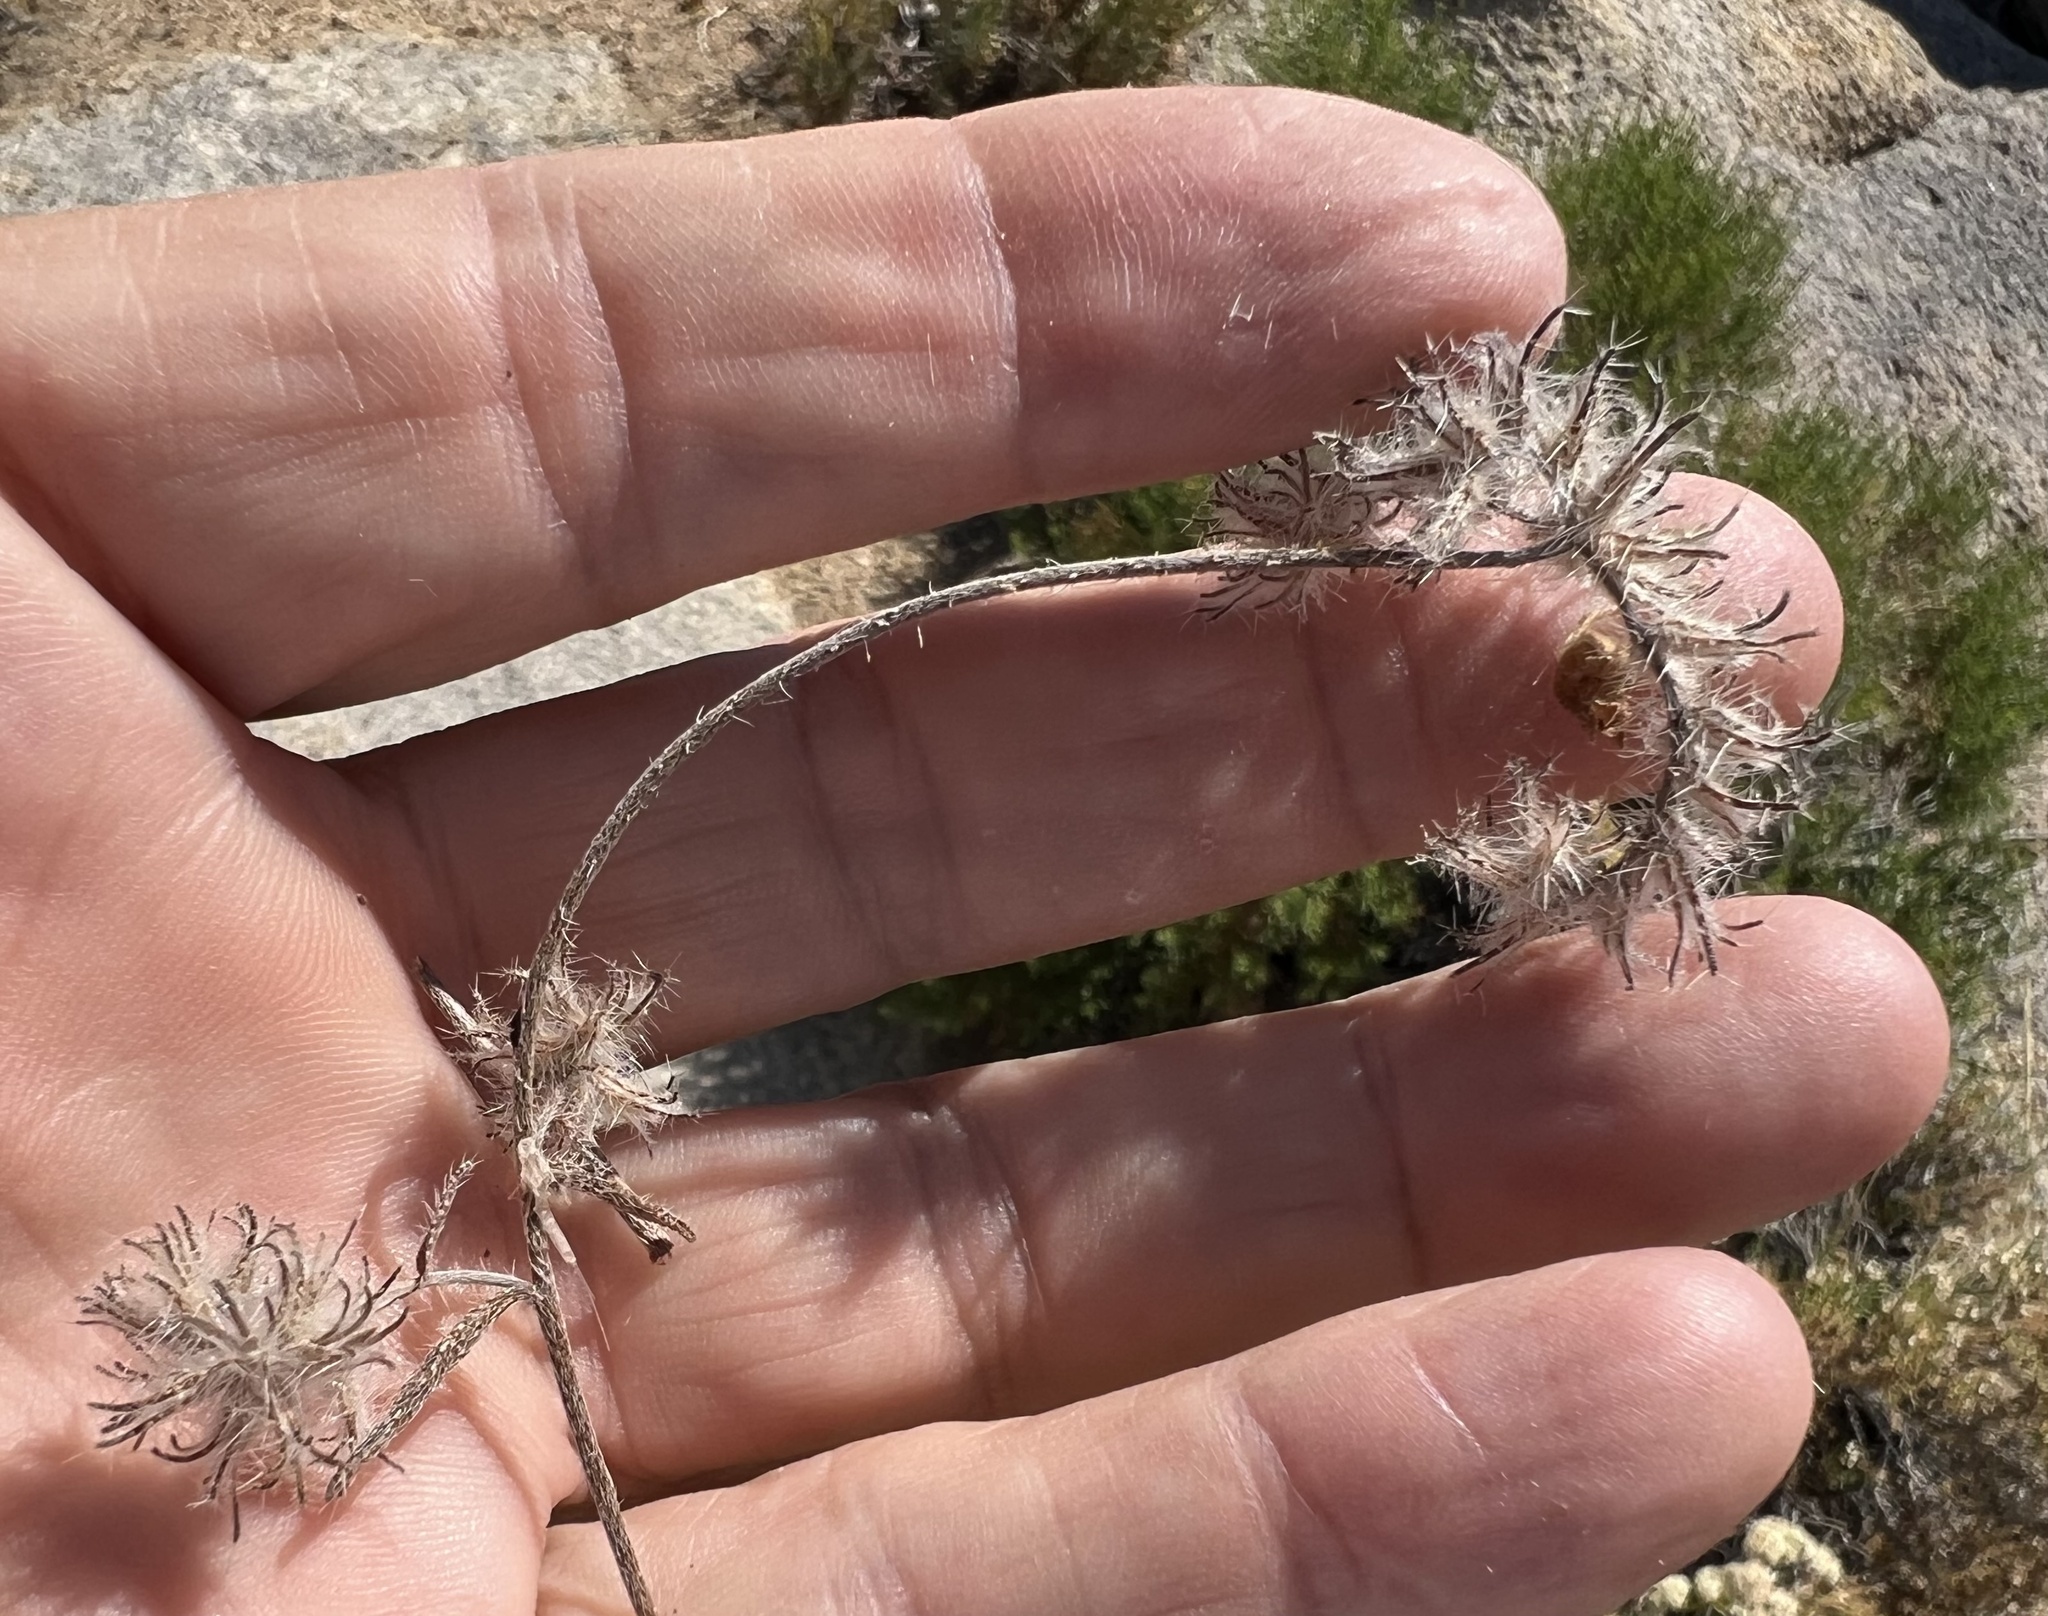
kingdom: Plantae
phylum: Tracheophyta
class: Magnoliopsida
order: Boraginales
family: Boraginaceae
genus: Cryptantha
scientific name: Cryptantha nevadensis
